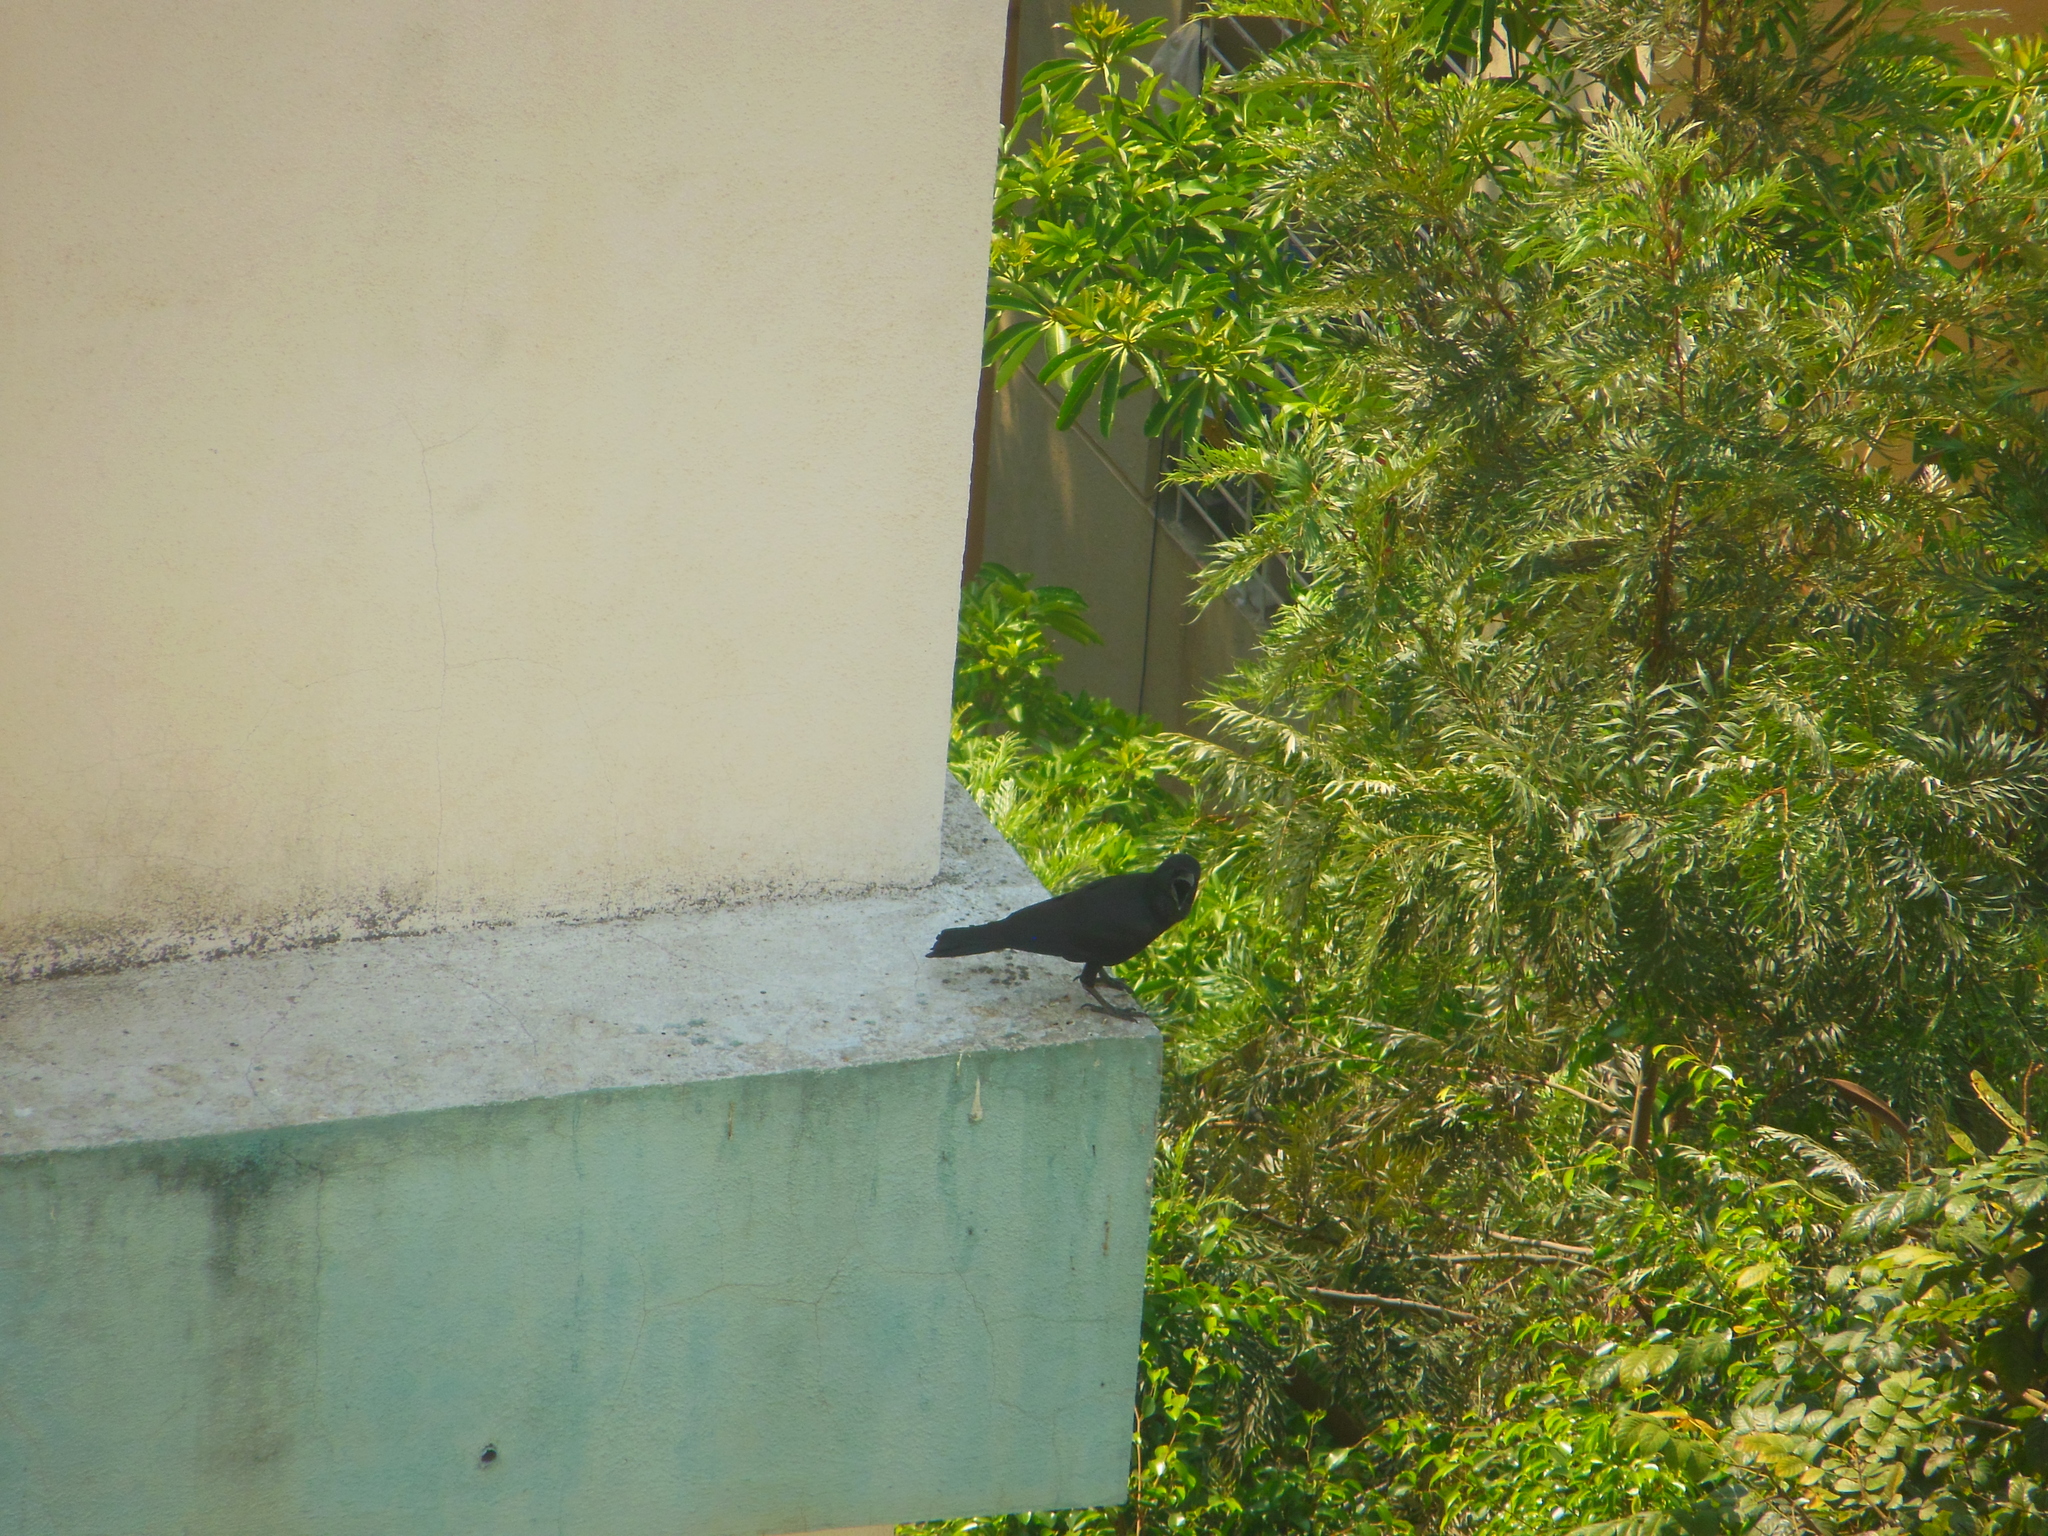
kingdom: Animalia
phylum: Chordata
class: Aves
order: Passeriformes
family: Corvidae
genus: Corvus
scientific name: Corvus macrorhynchos
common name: Large-billed crow
